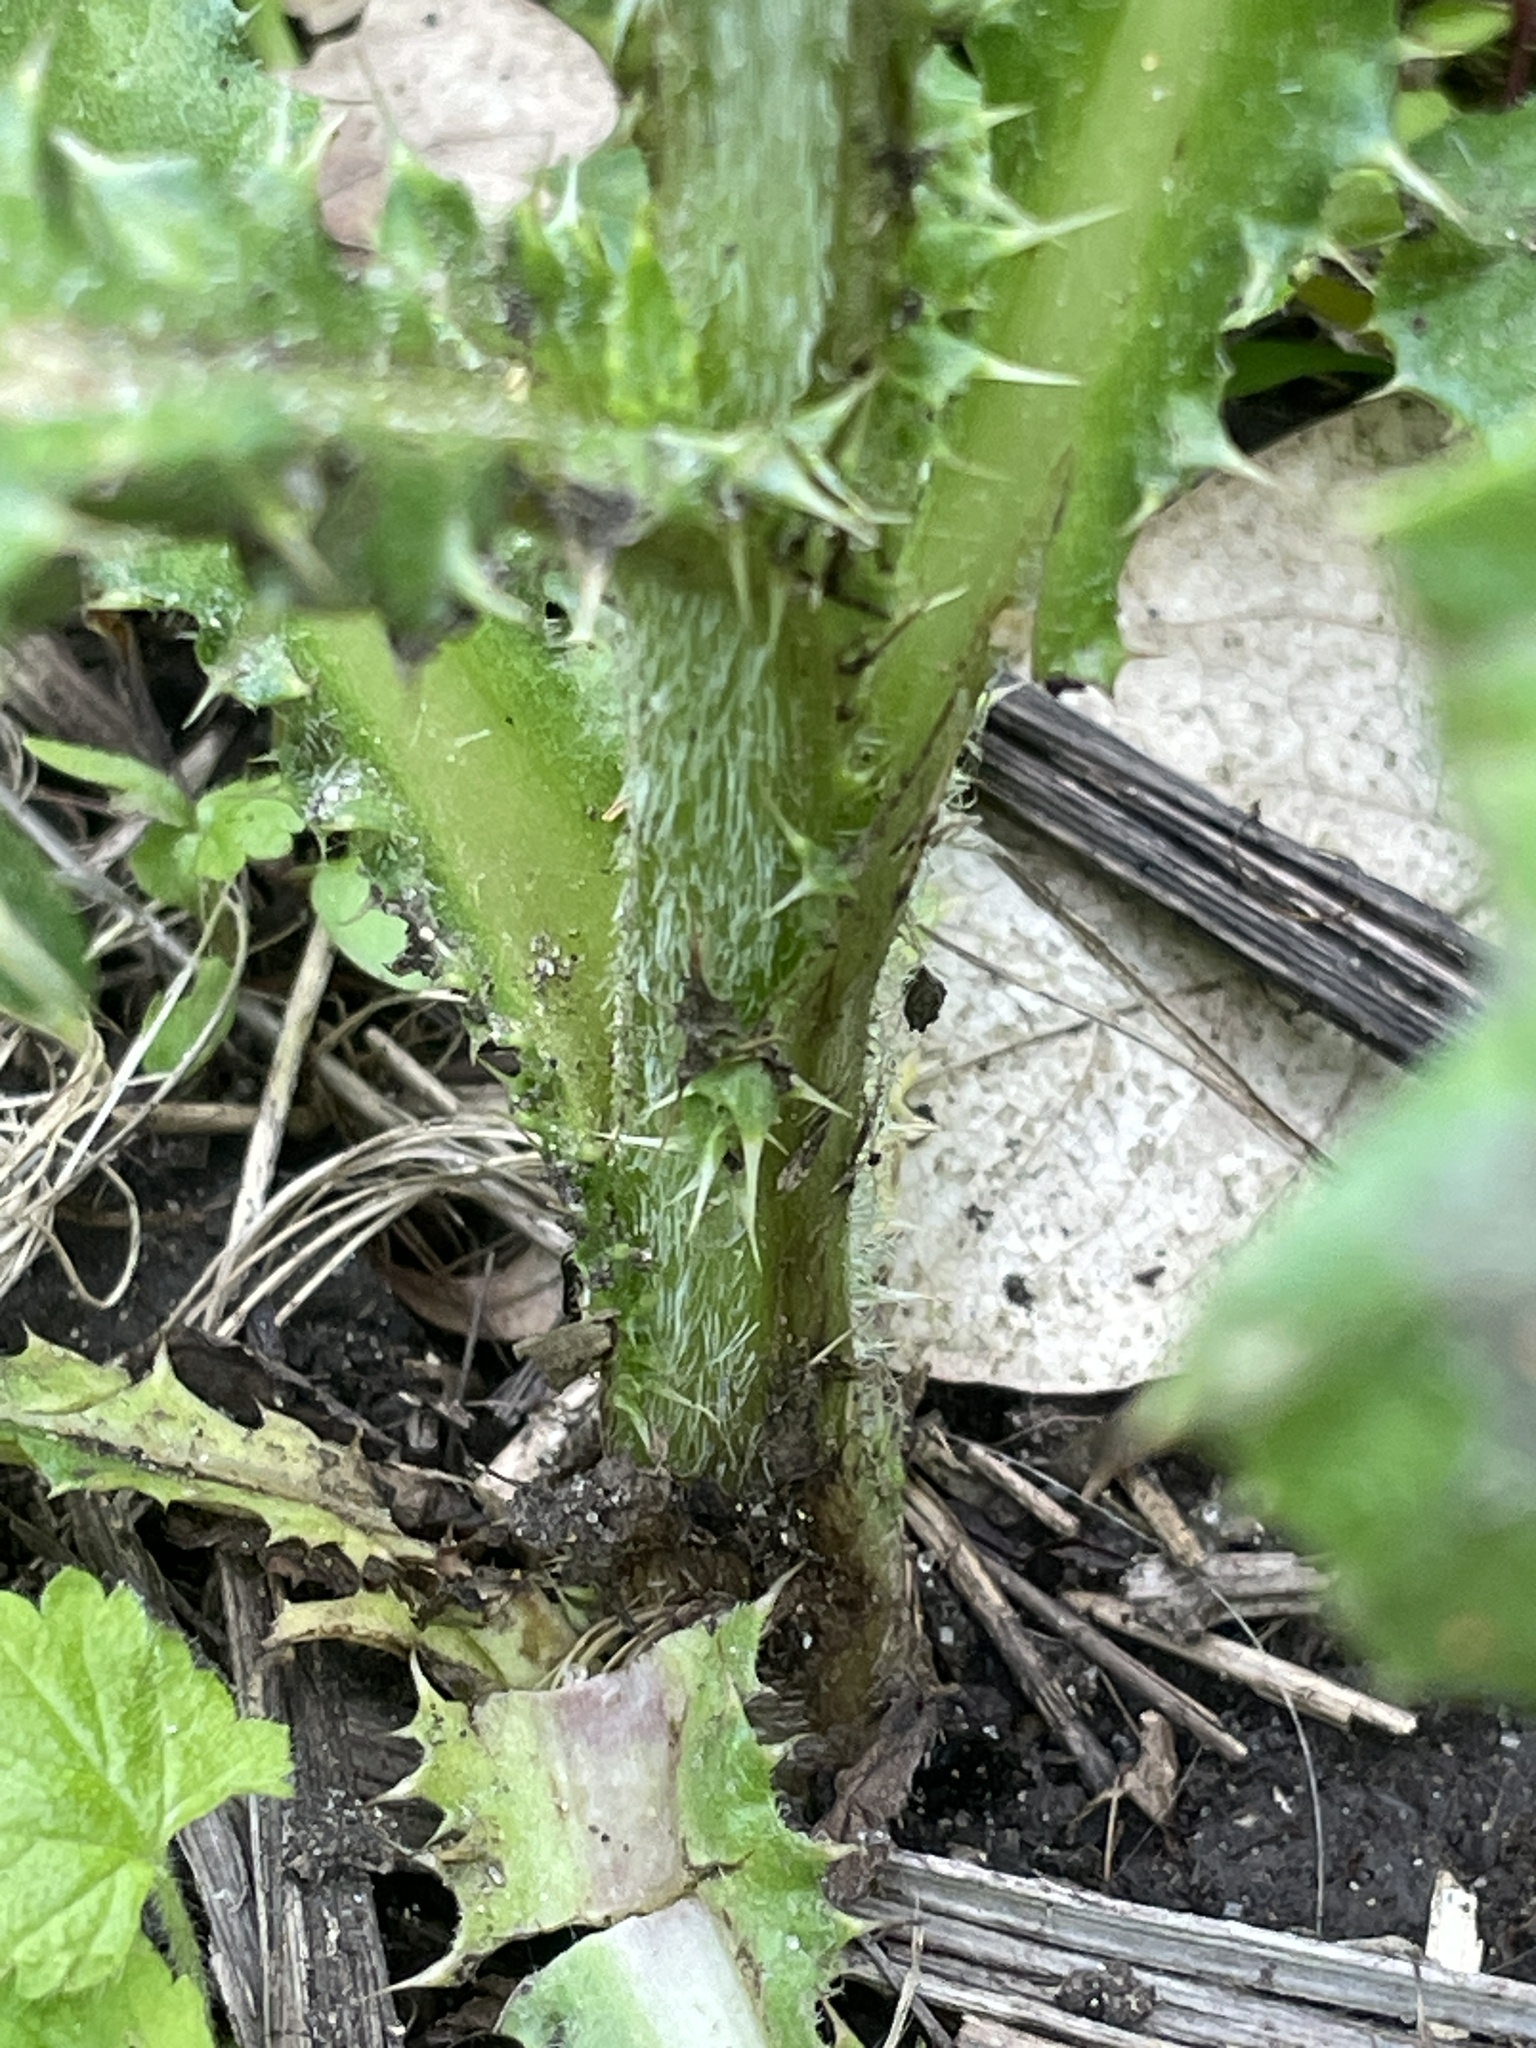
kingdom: Plantae
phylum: Tracheophyta
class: Magnoliopsida
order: Asterales
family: Asteraceae
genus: Cirsium
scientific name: Cirsium arvense
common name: Creeping thistle
